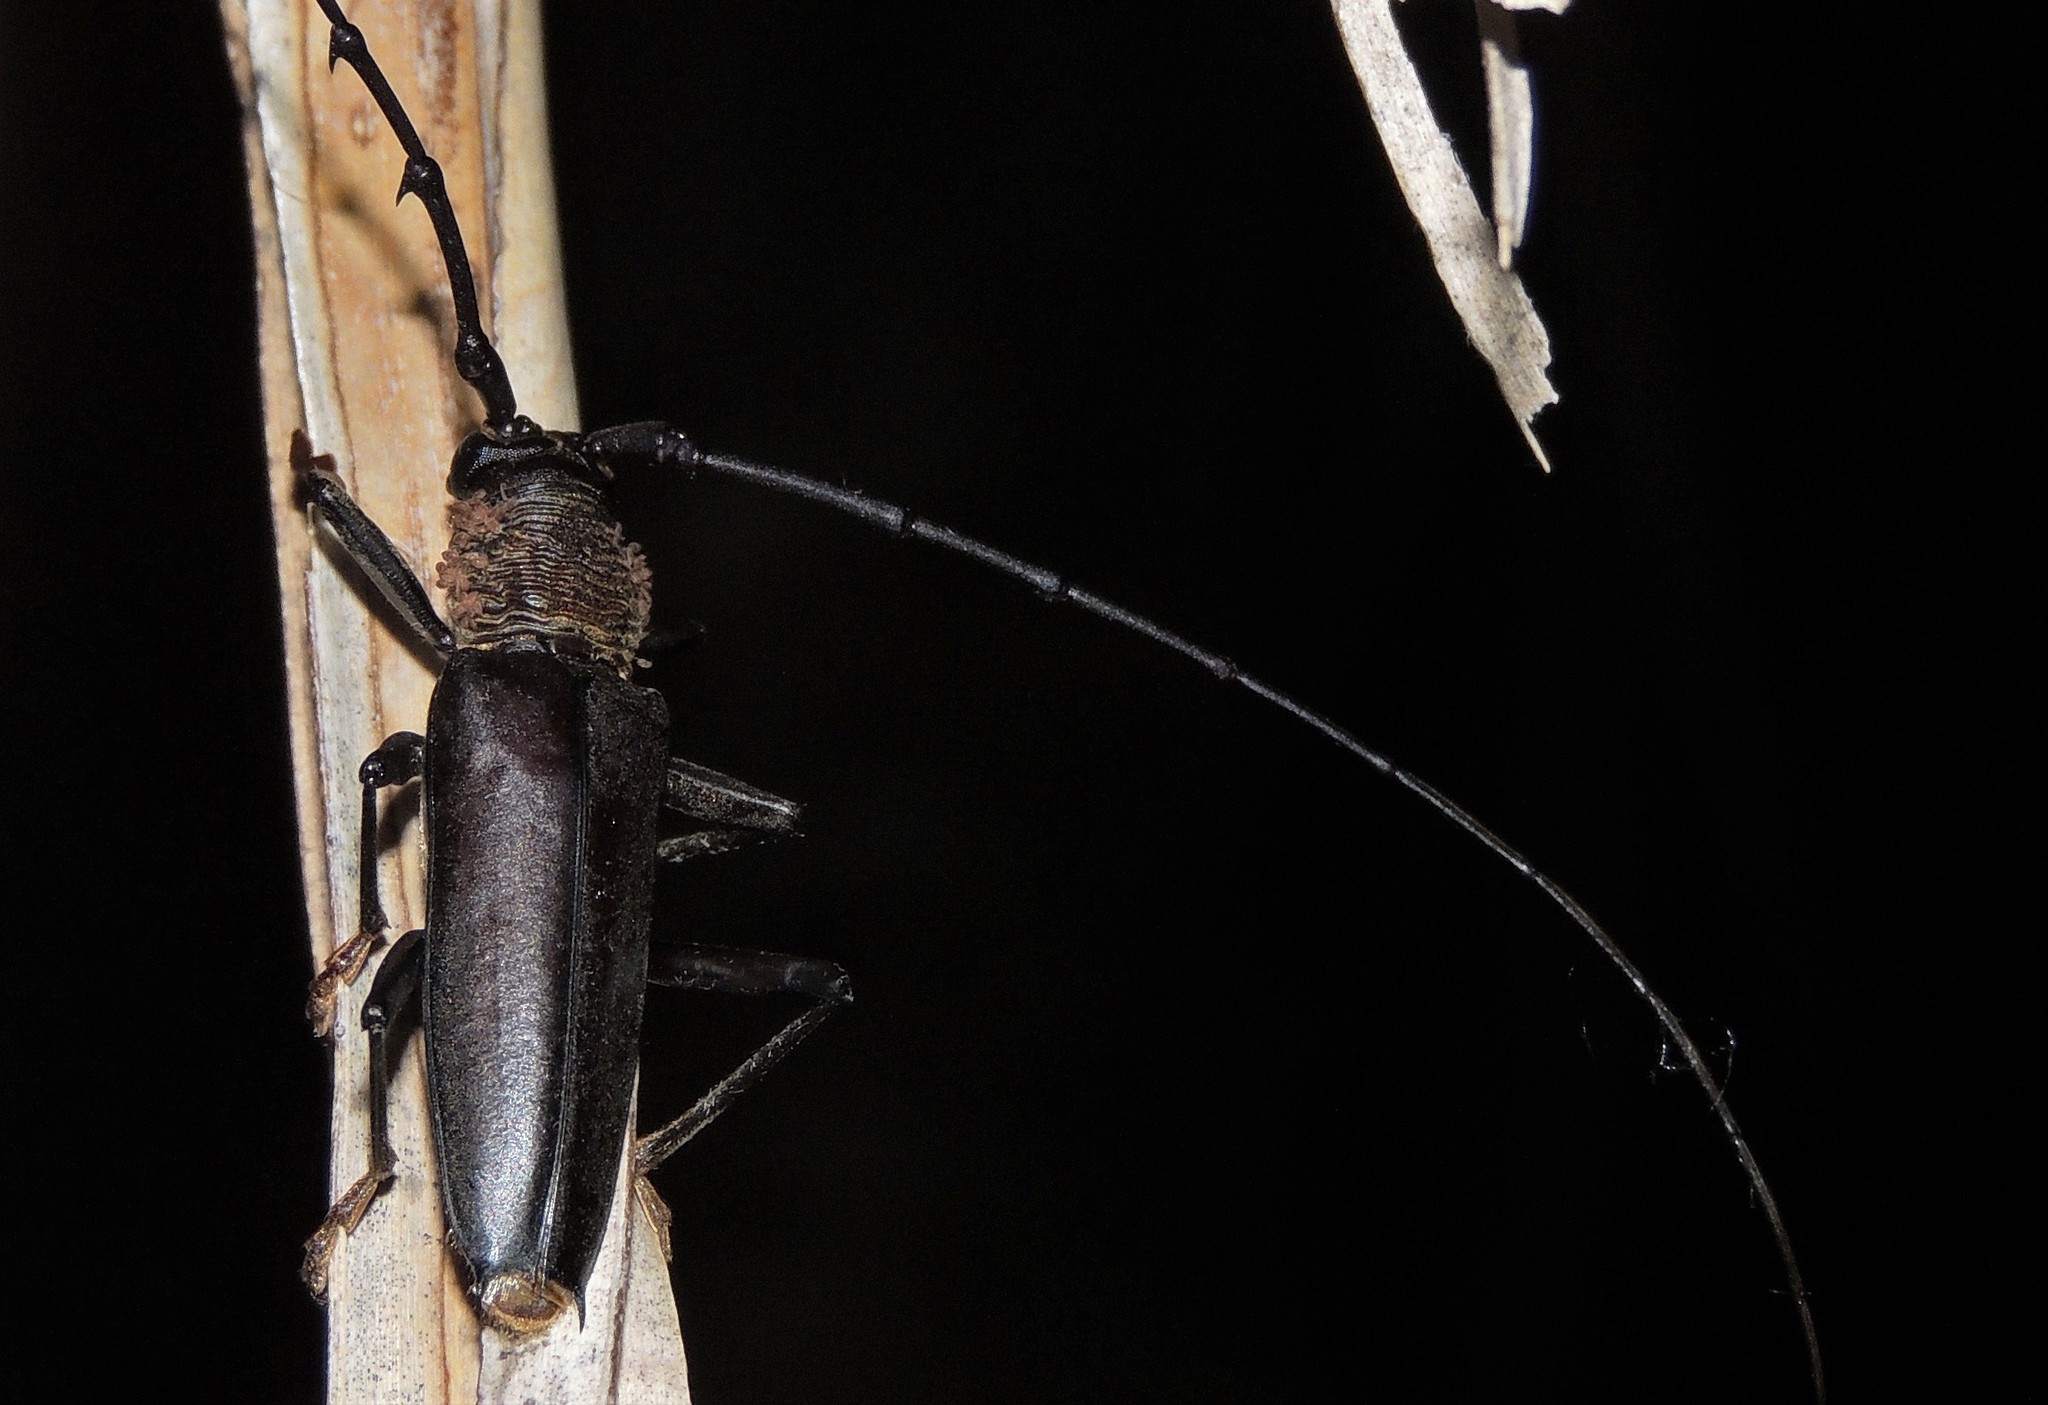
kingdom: Animalia
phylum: Arthropoda
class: Insecta
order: Coleoptera
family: Cerambycidae
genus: Juiaparus
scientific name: Juiaparus batus
